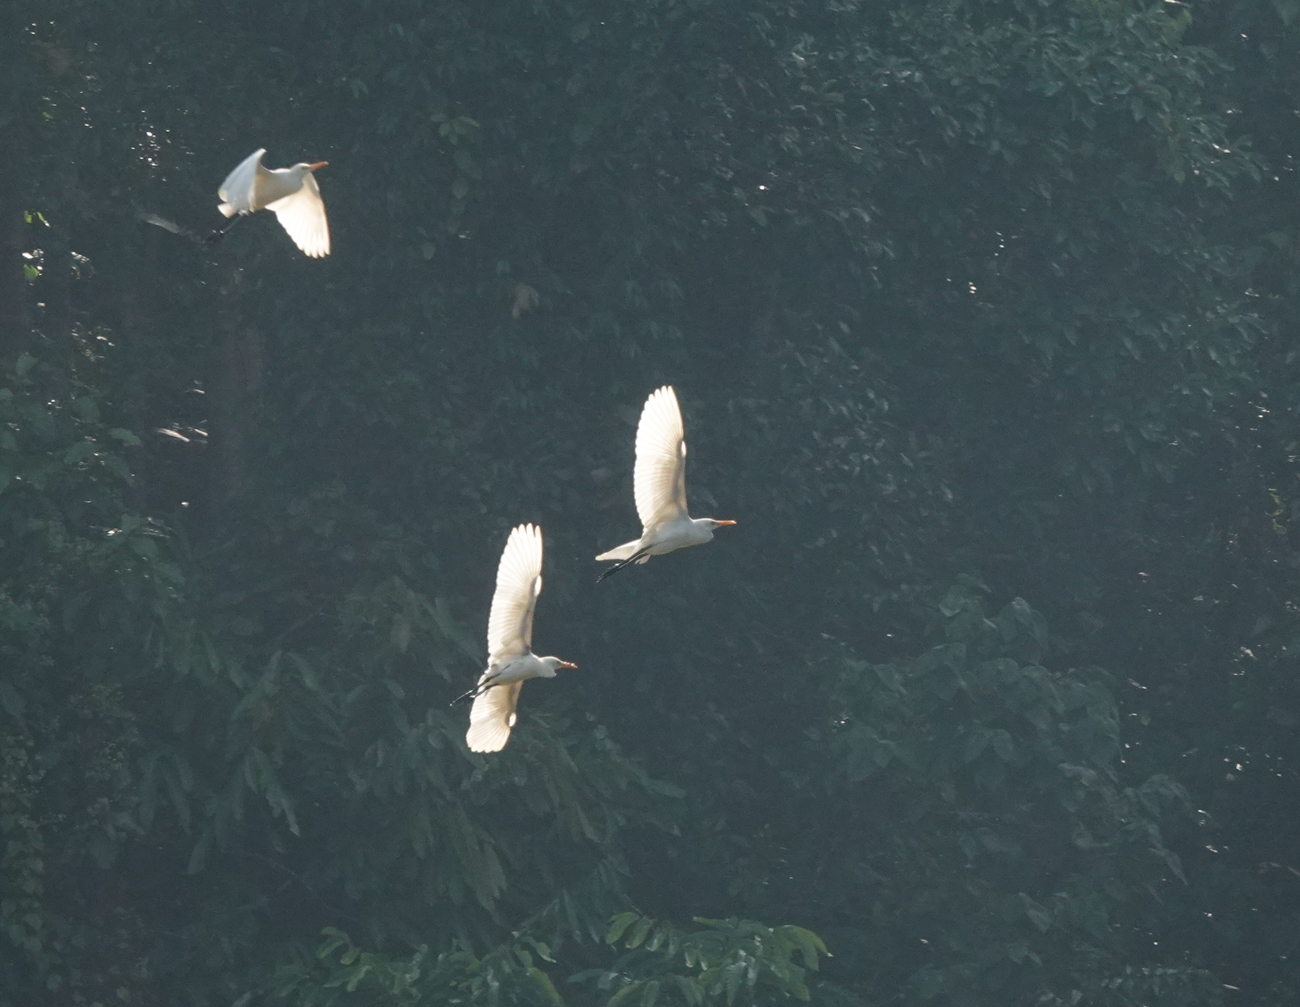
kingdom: Animalia
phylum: Chordata
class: Aves
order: Pelecaniformes
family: Ardeidae
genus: Bubulcus
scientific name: Bubulcus coromandus
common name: Eastern cattle egret
